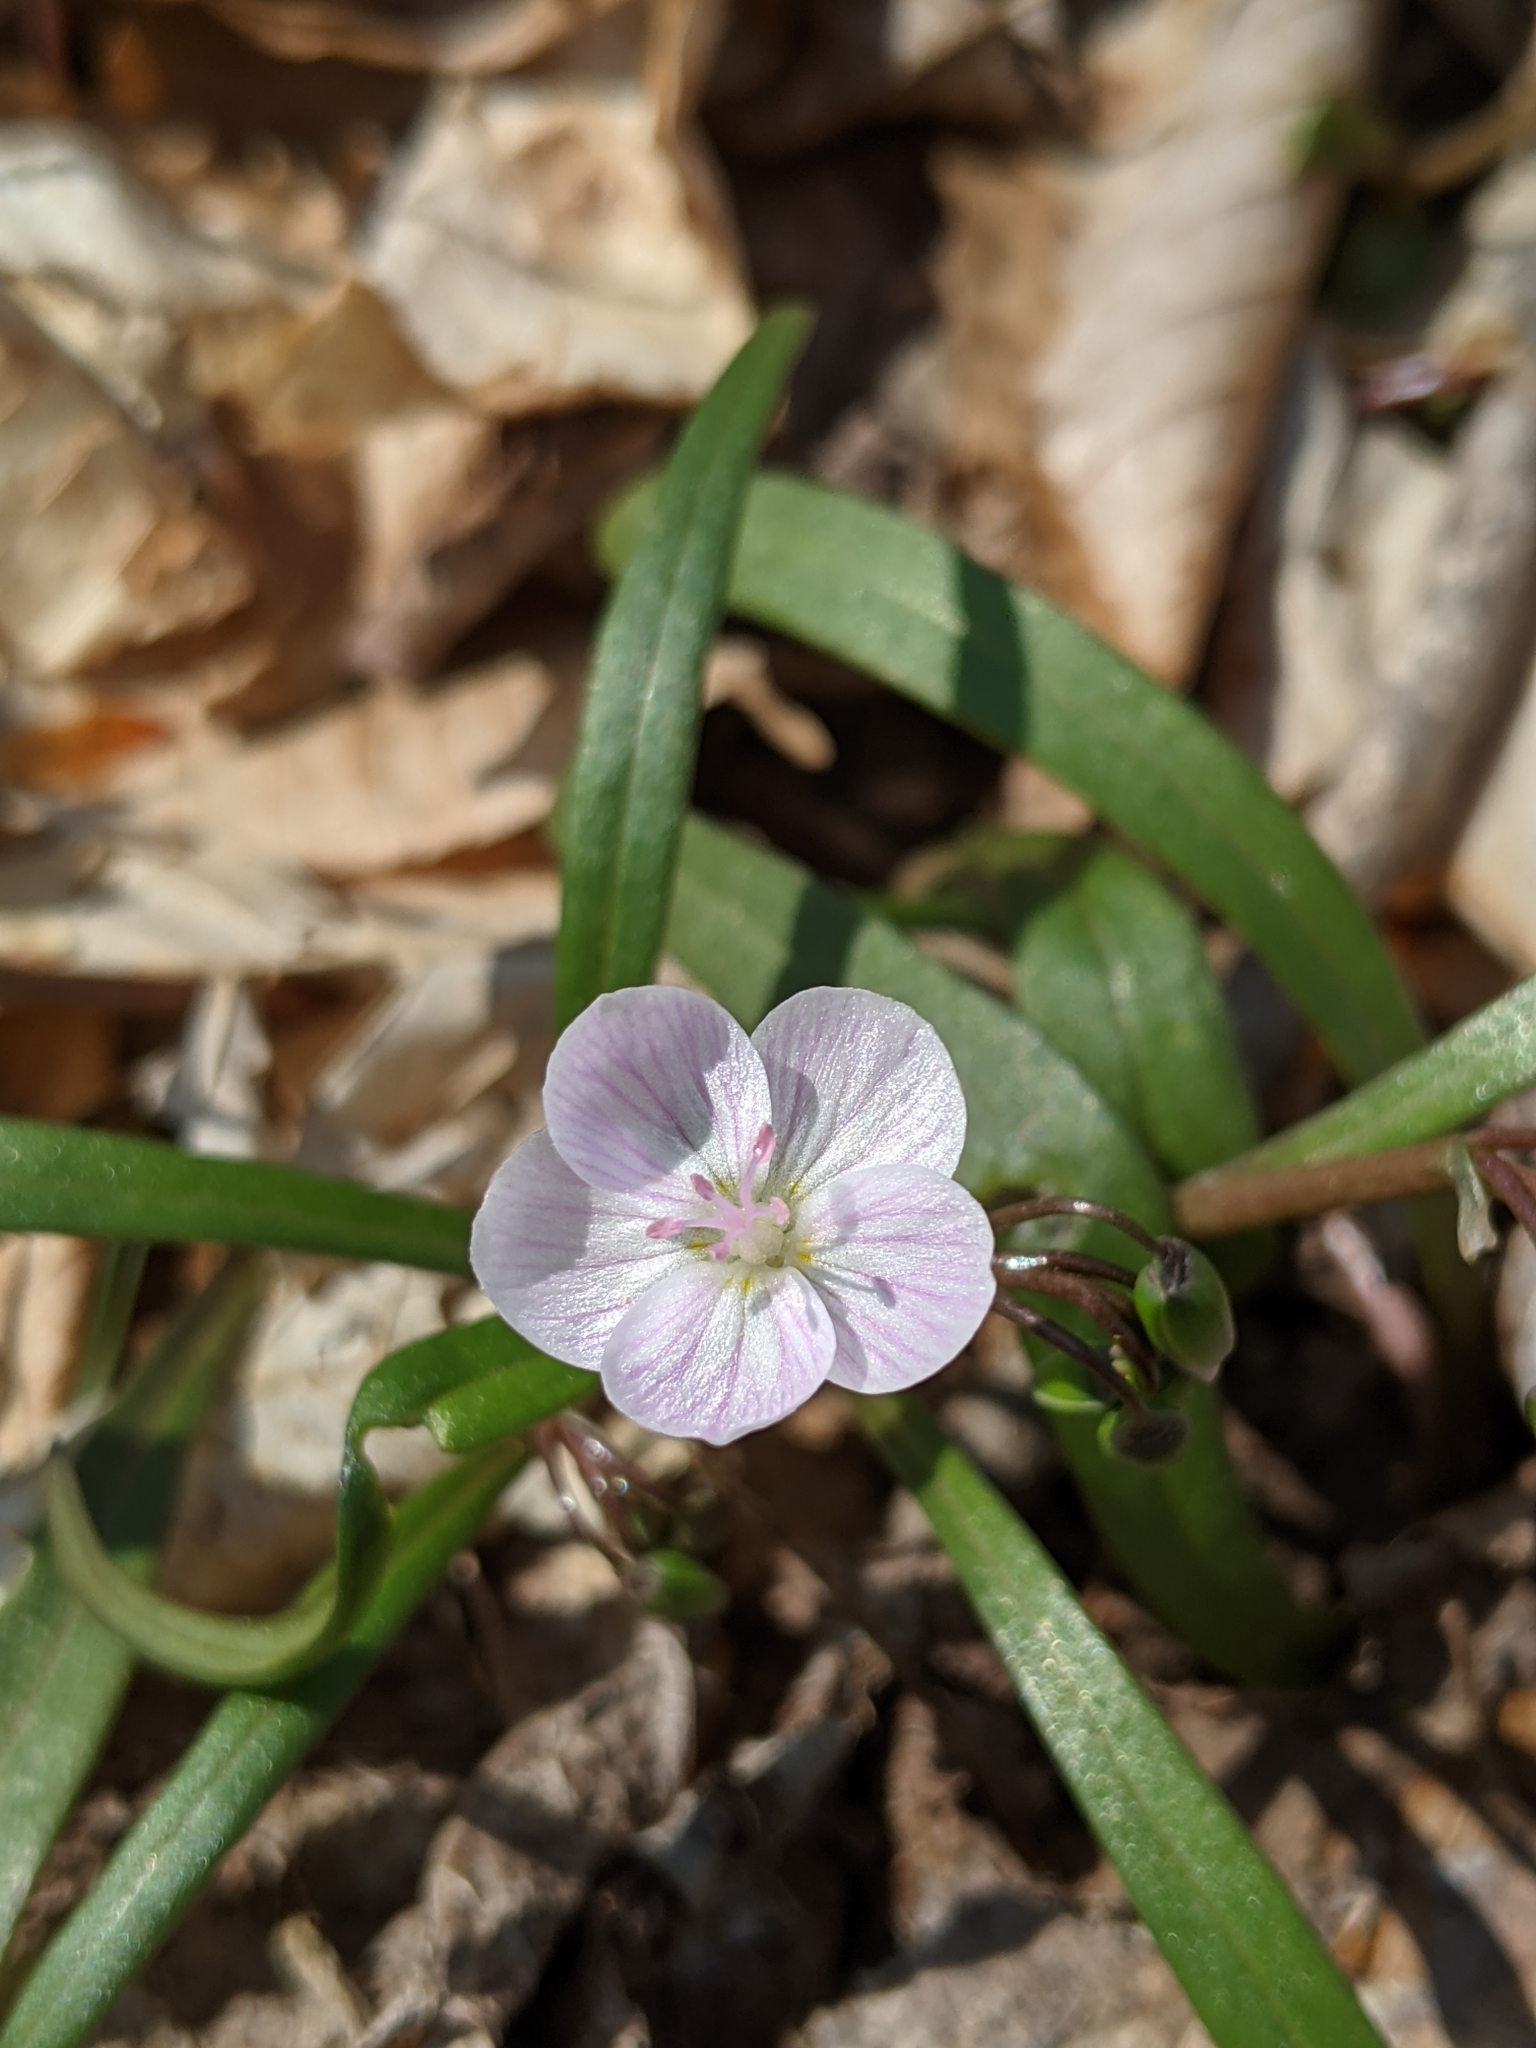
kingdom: Plantae
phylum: Tracheophyta
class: Magnoliopsida
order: Caryophyllales
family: Montiaceae
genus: Claytonia
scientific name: Claytonia virginica
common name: Virginia springbeauty
